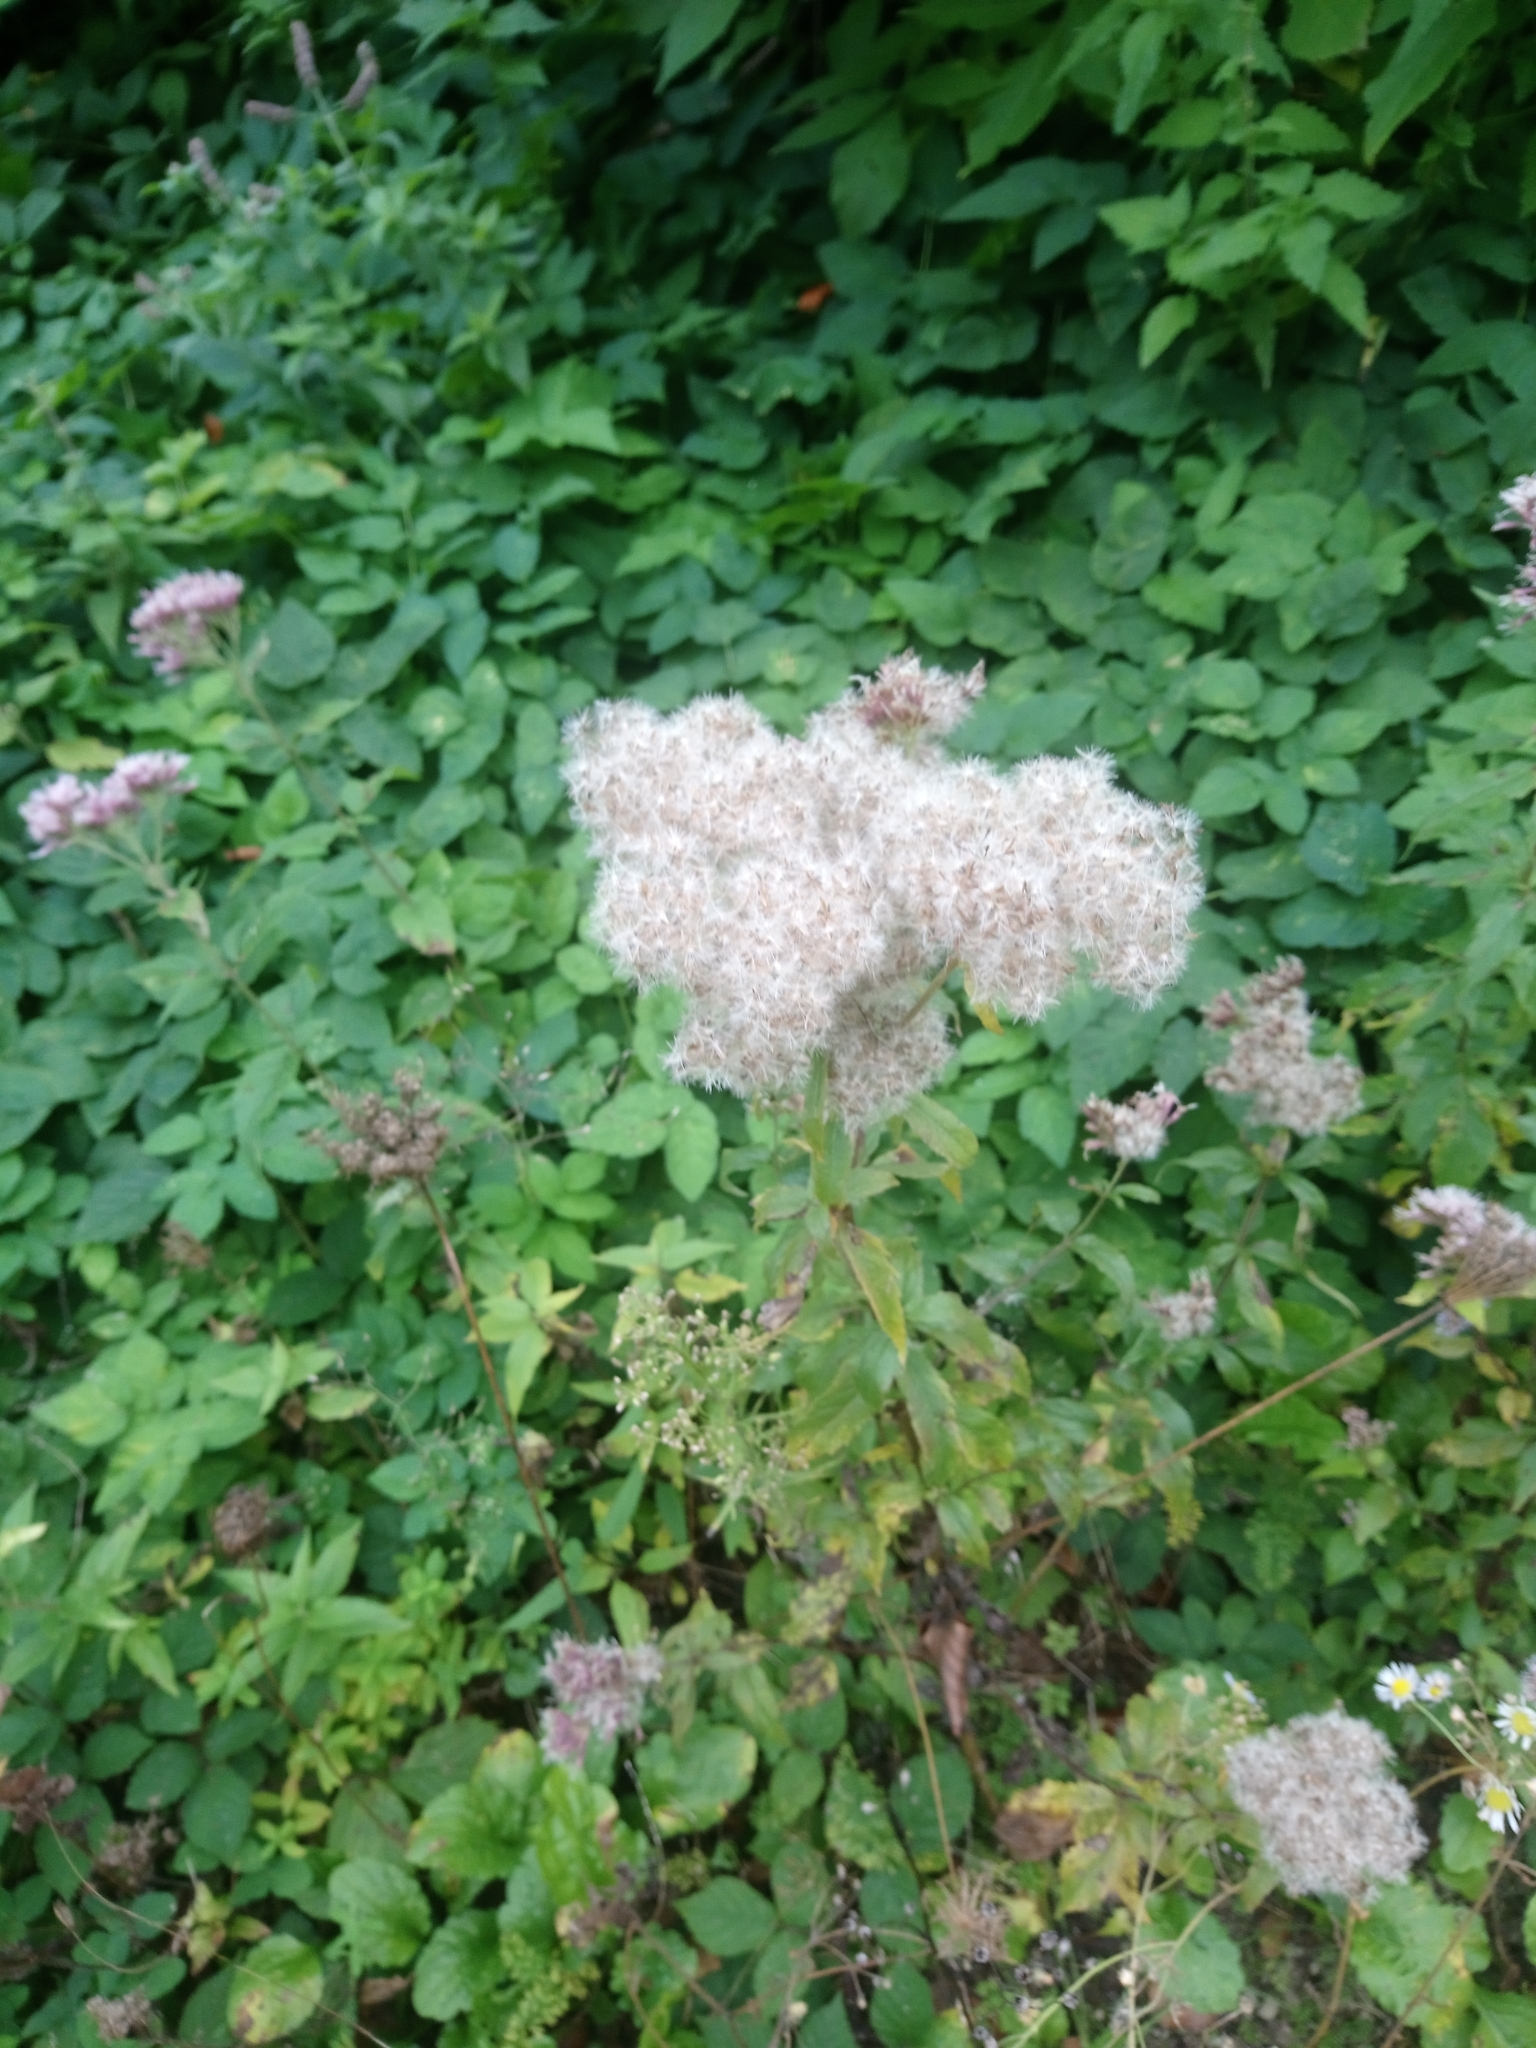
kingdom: Plantae
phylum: Tracheophyta
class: Magnoliopsida
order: Asterales
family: Asteraceae
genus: Eupatorium
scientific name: Eupatorium cannabinum
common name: Hemp-agrimony
